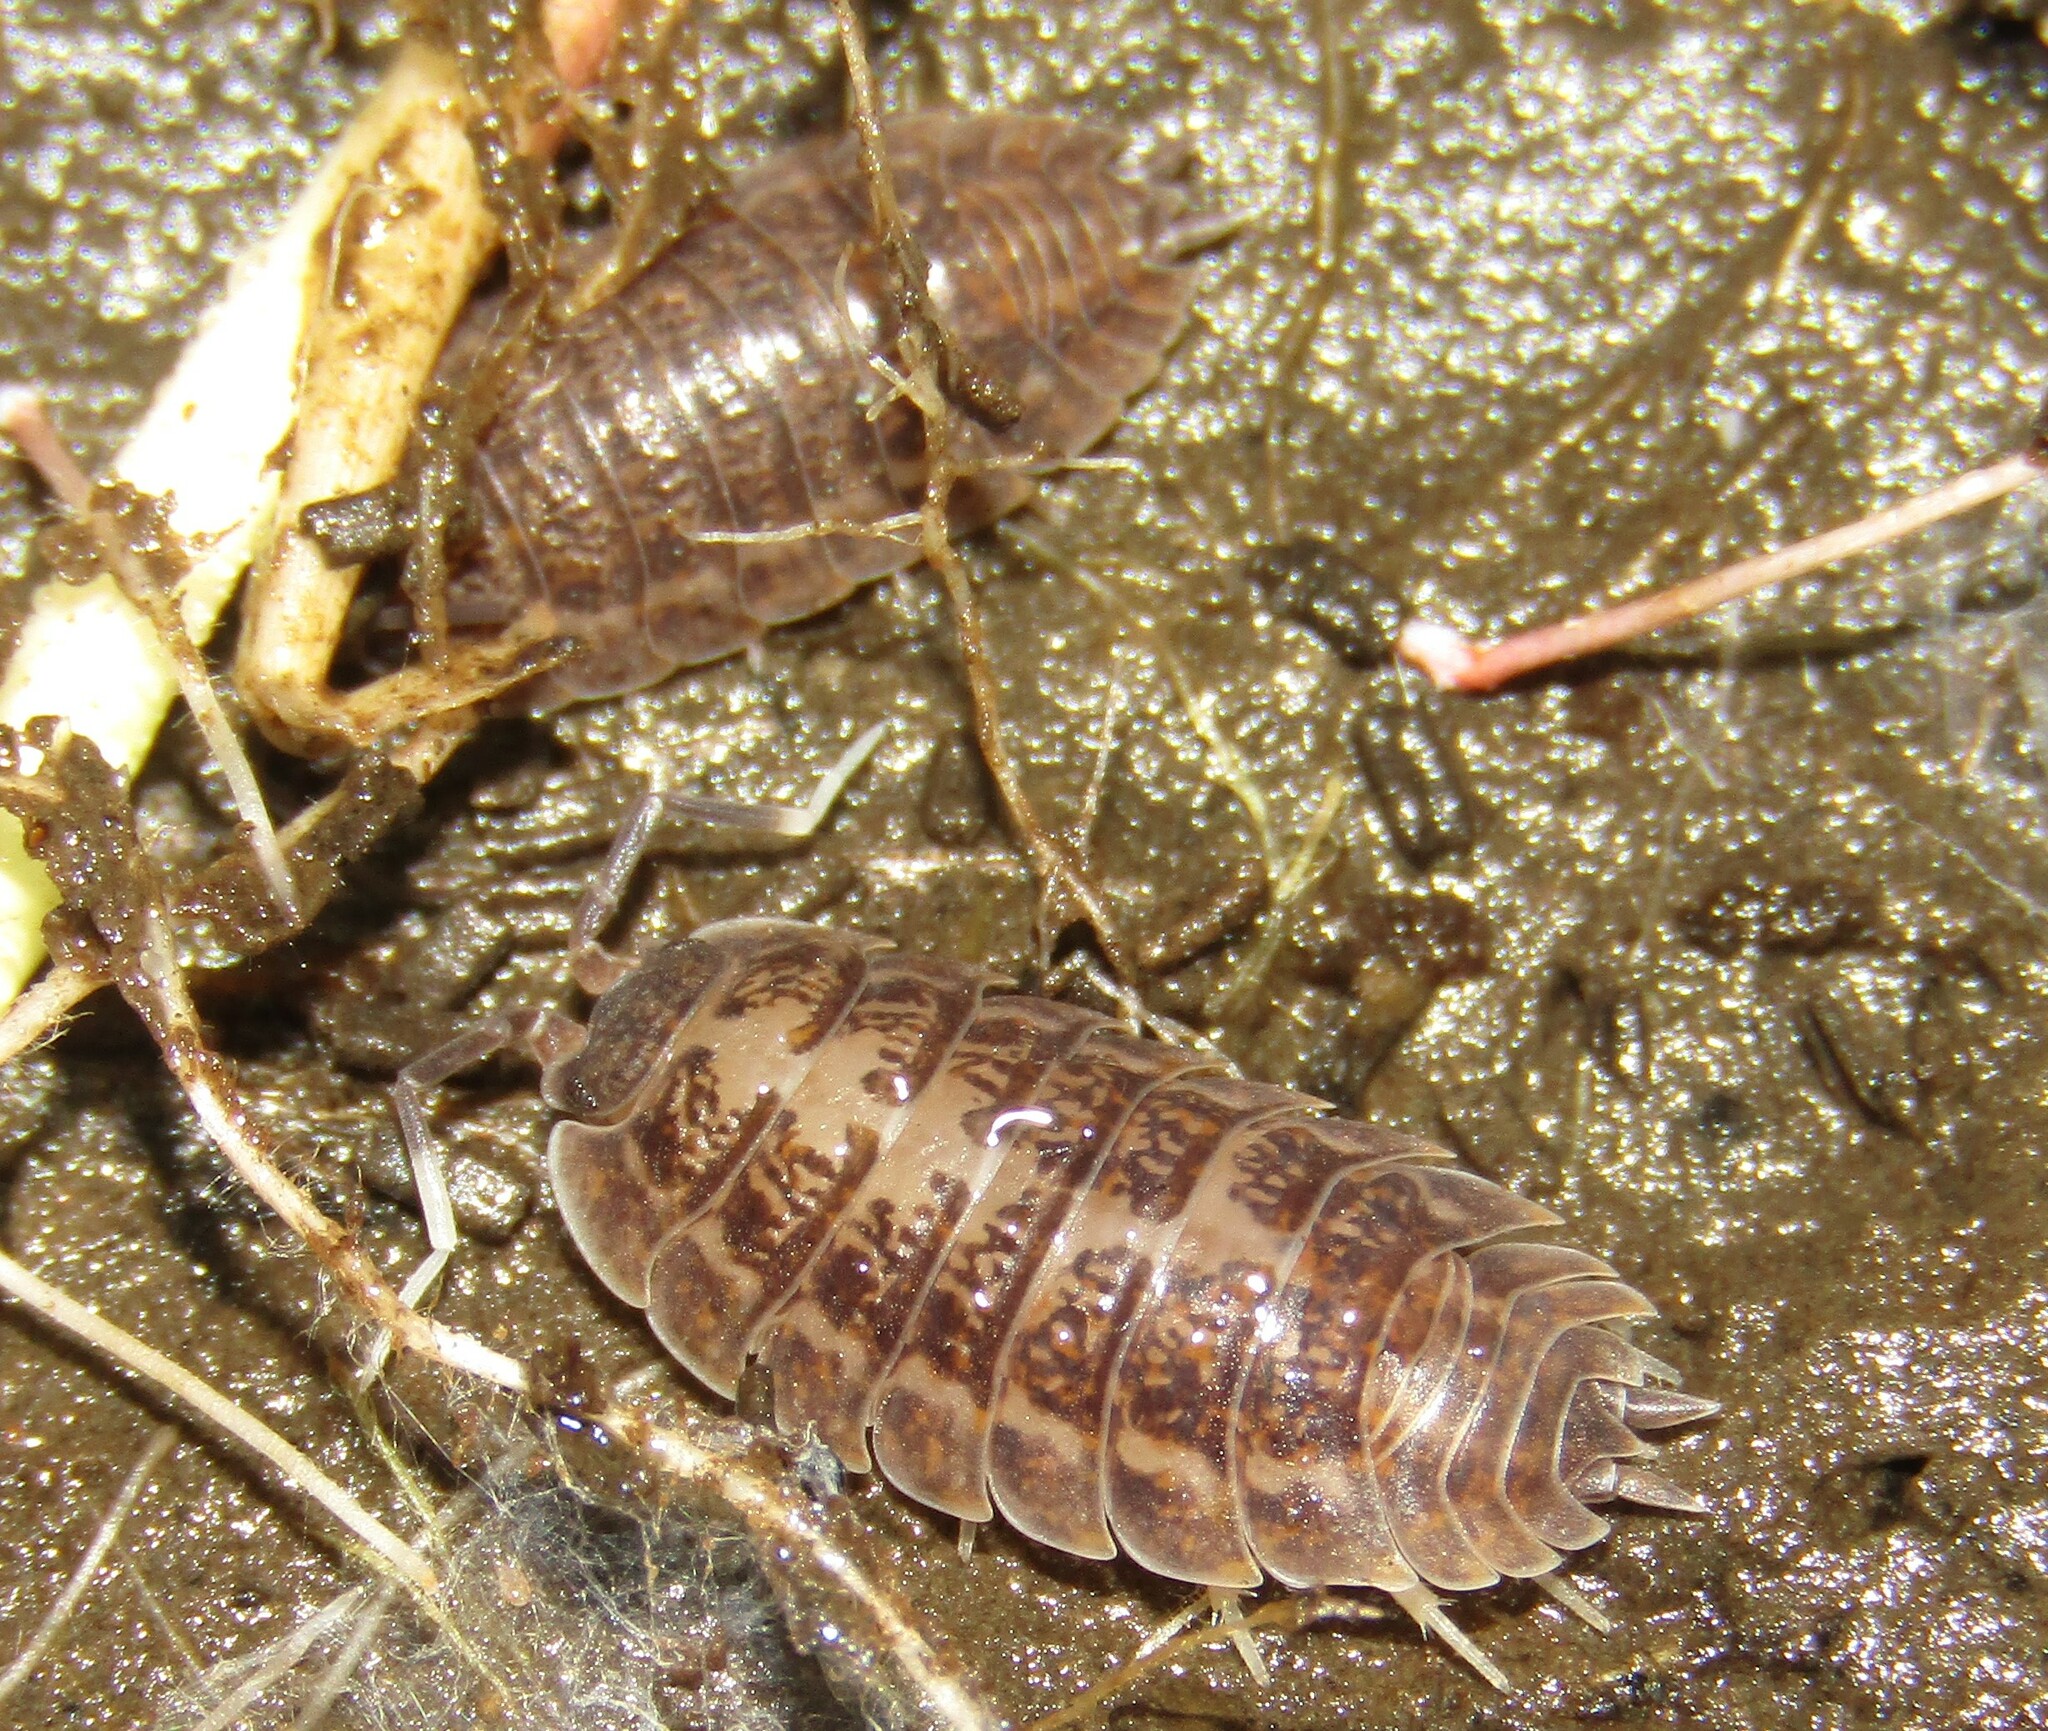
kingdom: Animalia
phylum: Arthropoda
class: Malacostraca
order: Isopoda
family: Trachelipodidae
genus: Trachelipus
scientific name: Trachelipus rathkii
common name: Isopod
